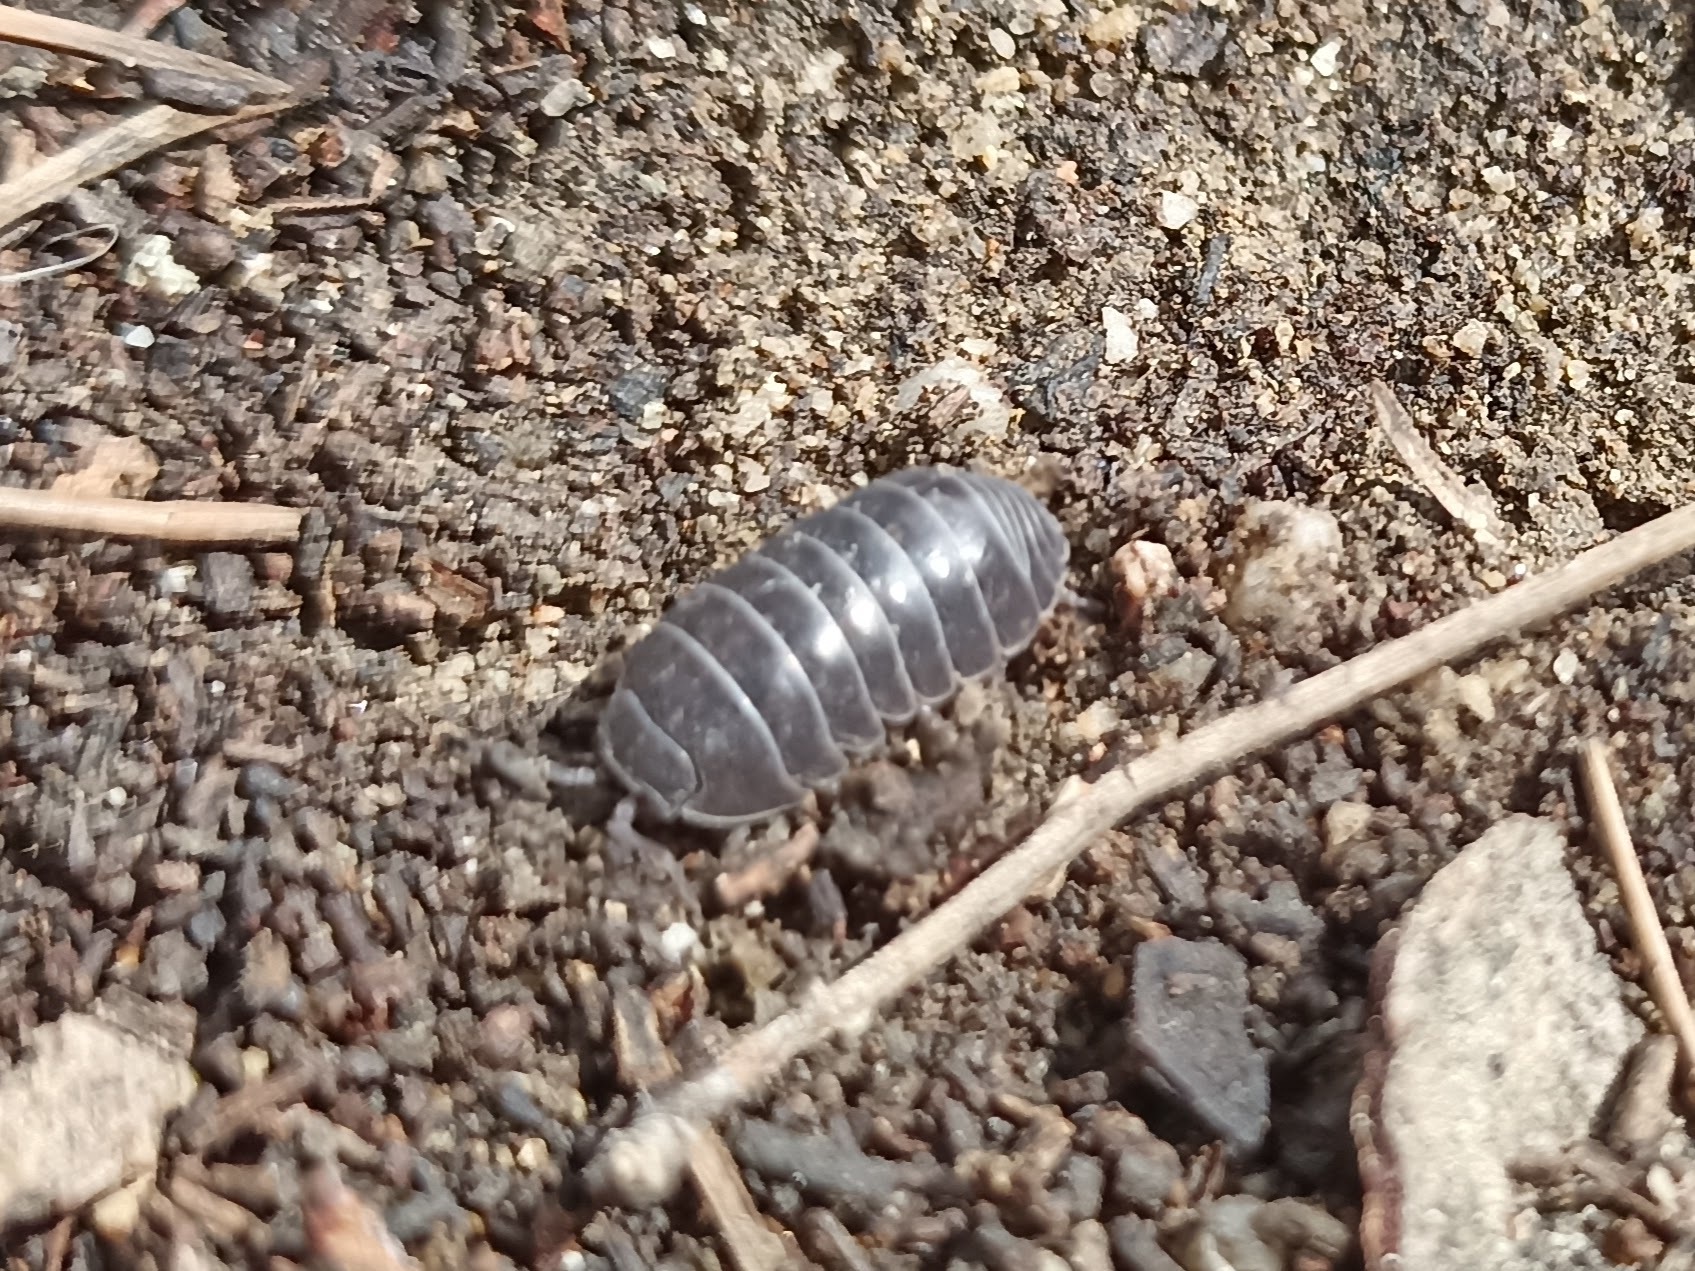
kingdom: Animalia
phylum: Arthropoda
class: Malacostraca
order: Isopoda
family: Armadillidiidae
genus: Armadillidium
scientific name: Armadillidium vulgare
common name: Common pill woodlouse
